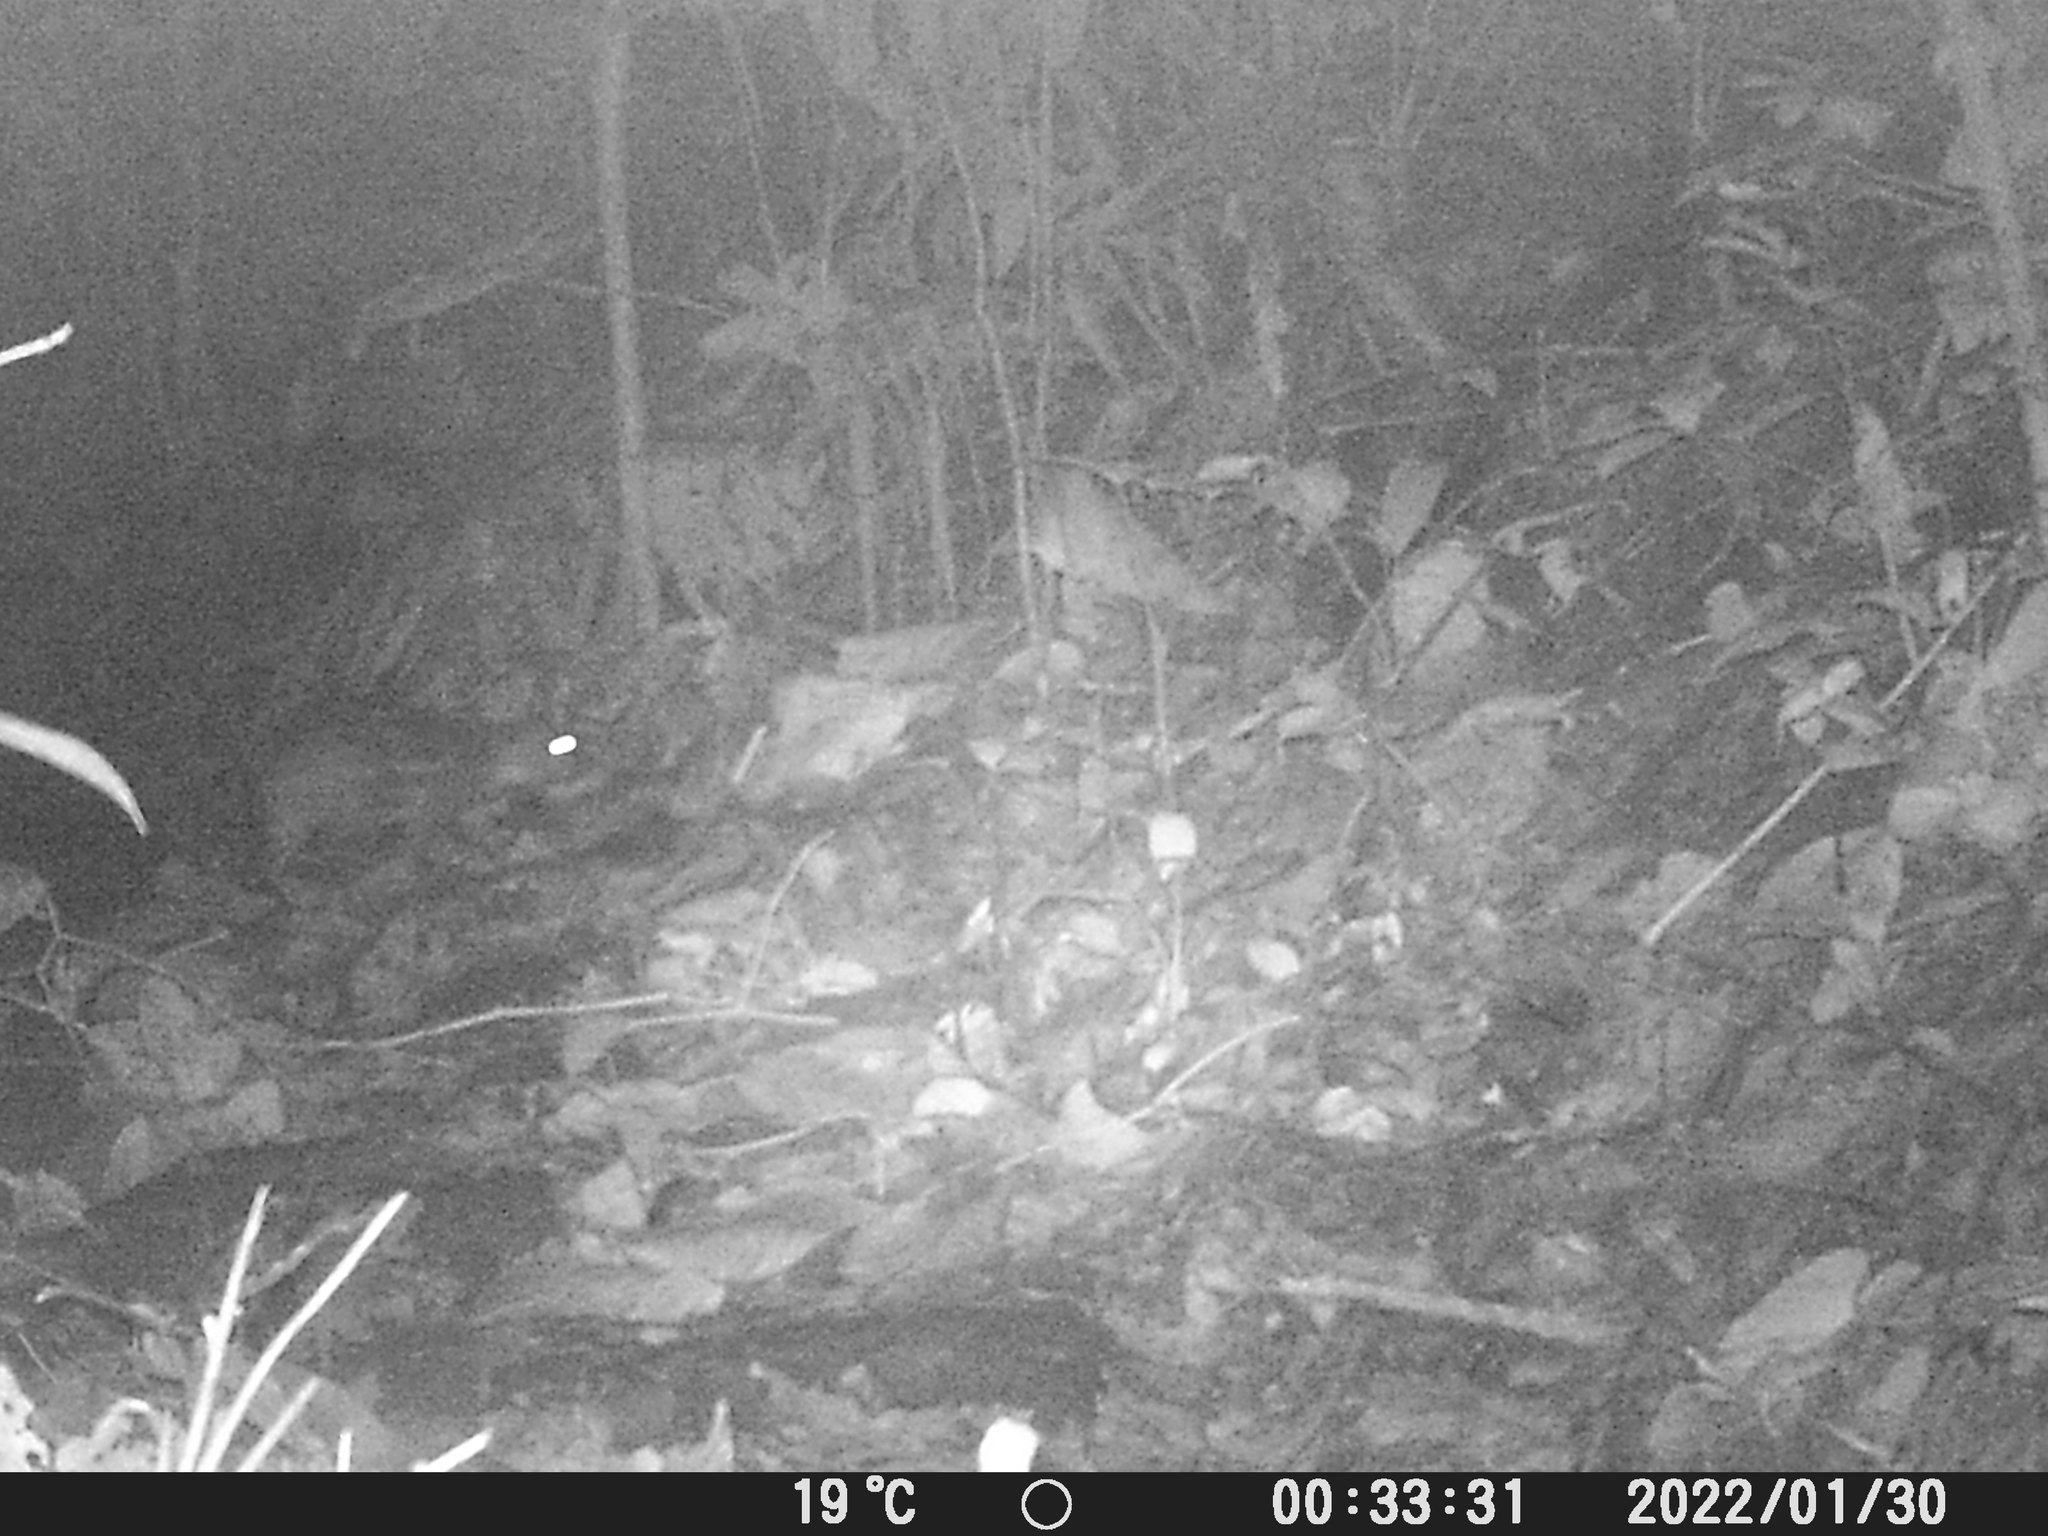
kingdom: Animalia
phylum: Chordata
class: Mammalia
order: Rodentia
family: Cuniculidae
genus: Cuniculus
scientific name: Cuniculus paca
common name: Lowland paca
